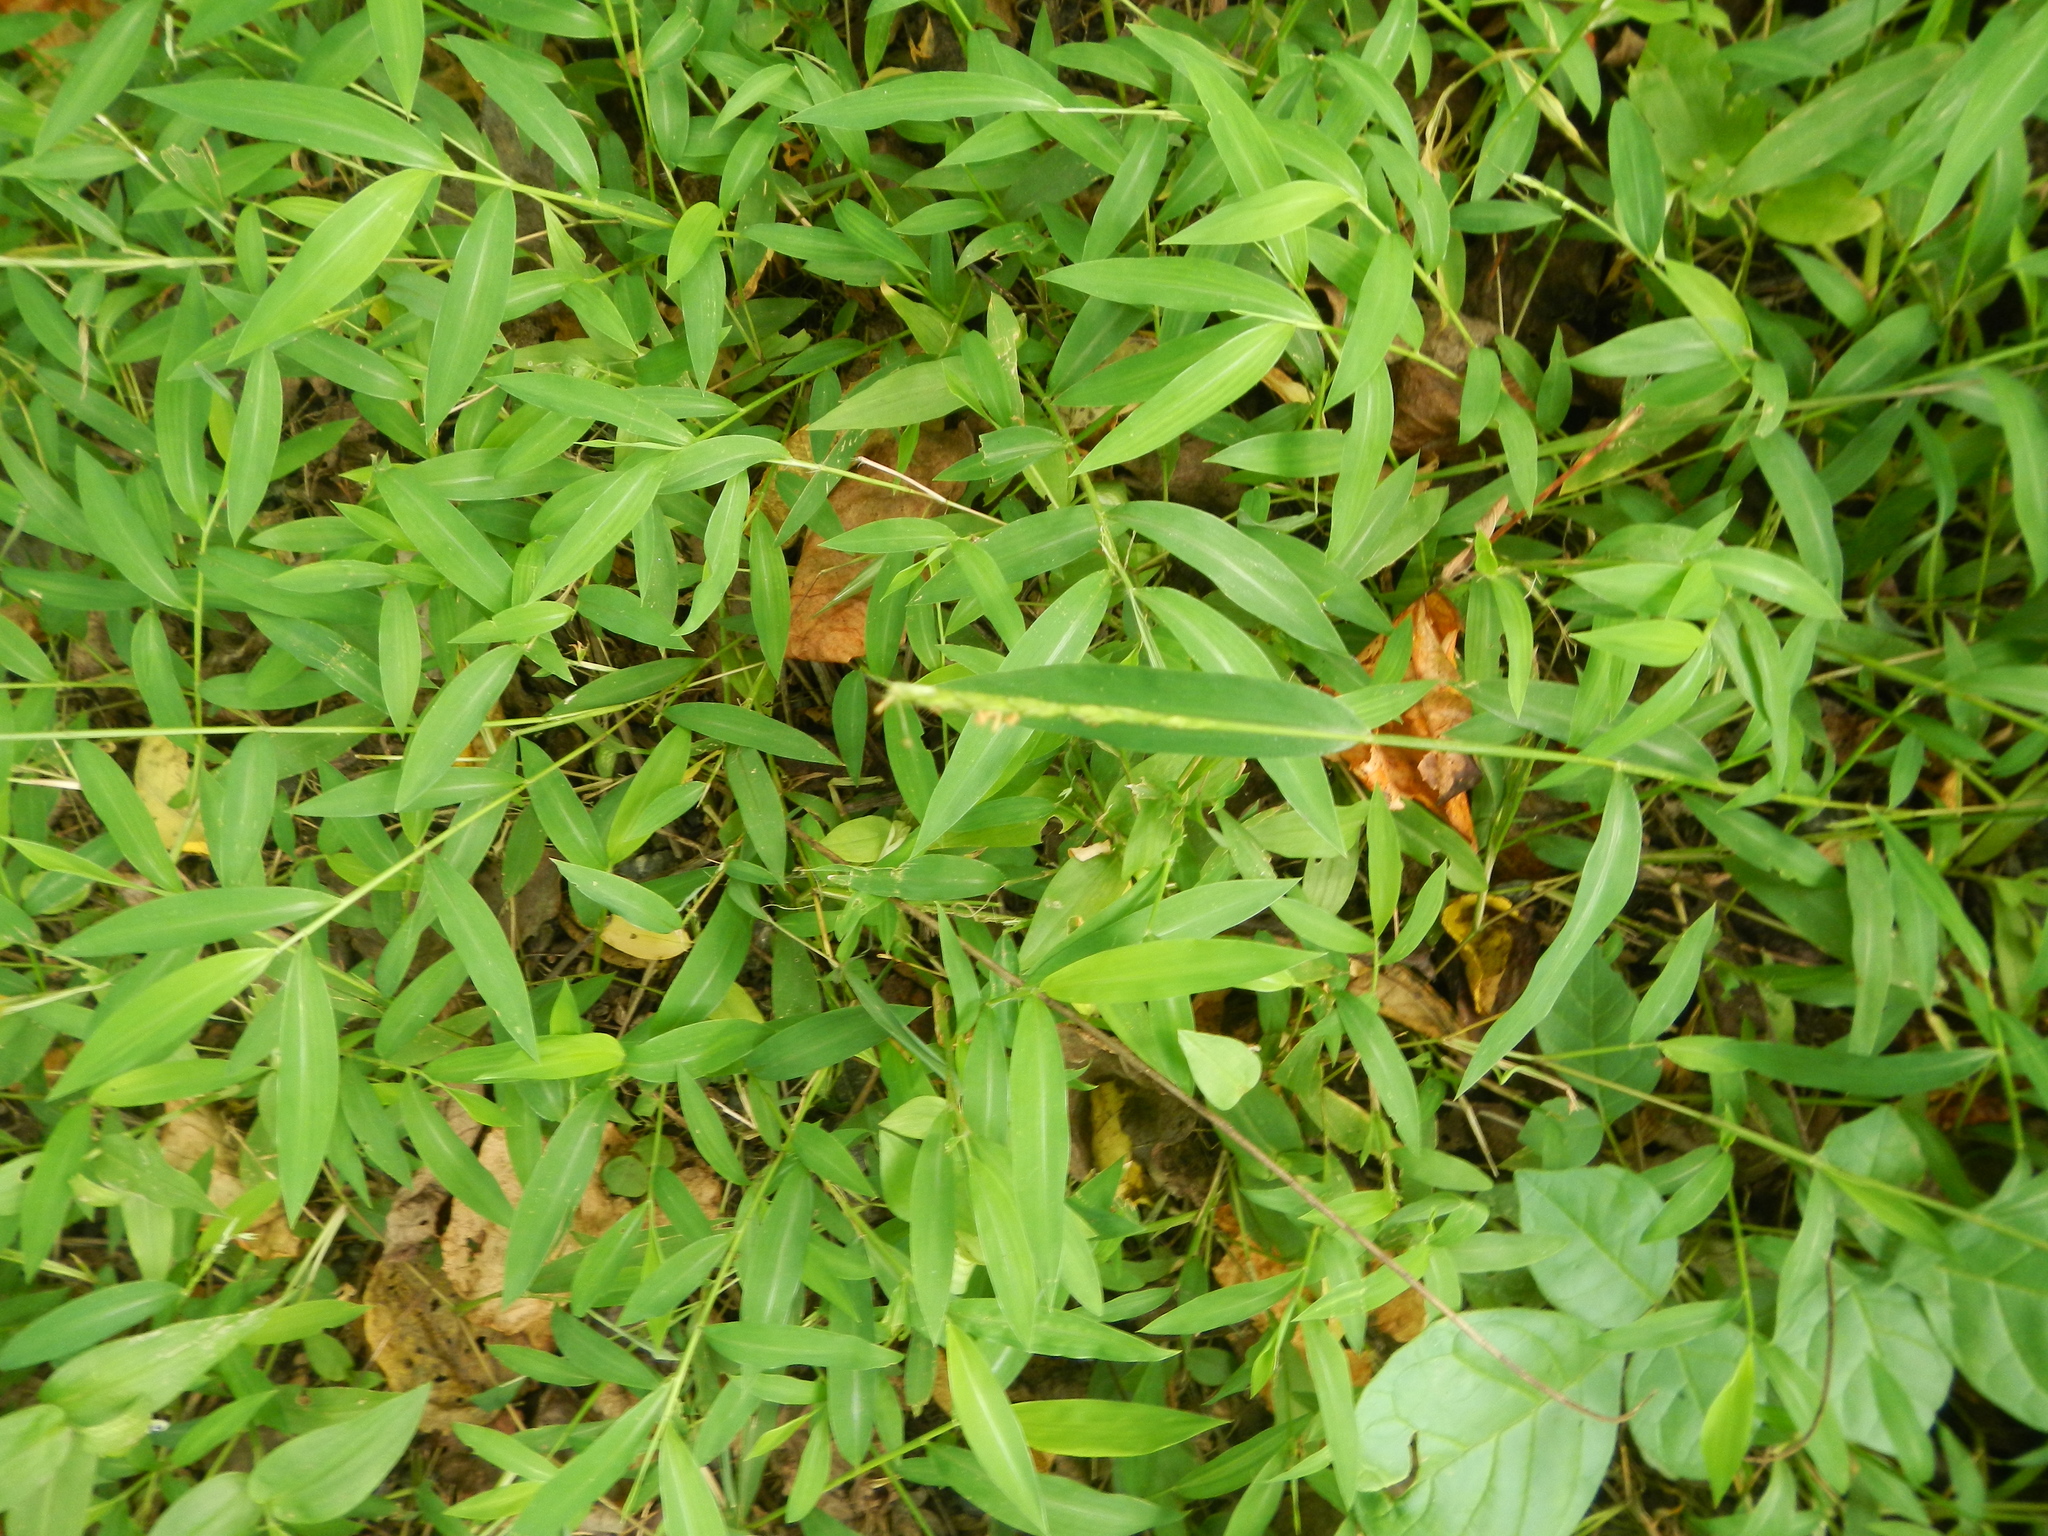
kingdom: Plantae
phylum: Tracheophyta
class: Liliopsida
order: Poales
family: Poaceae
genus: Microstegium
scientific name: Microstegium vimineum
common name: Japanese stiltgrass
